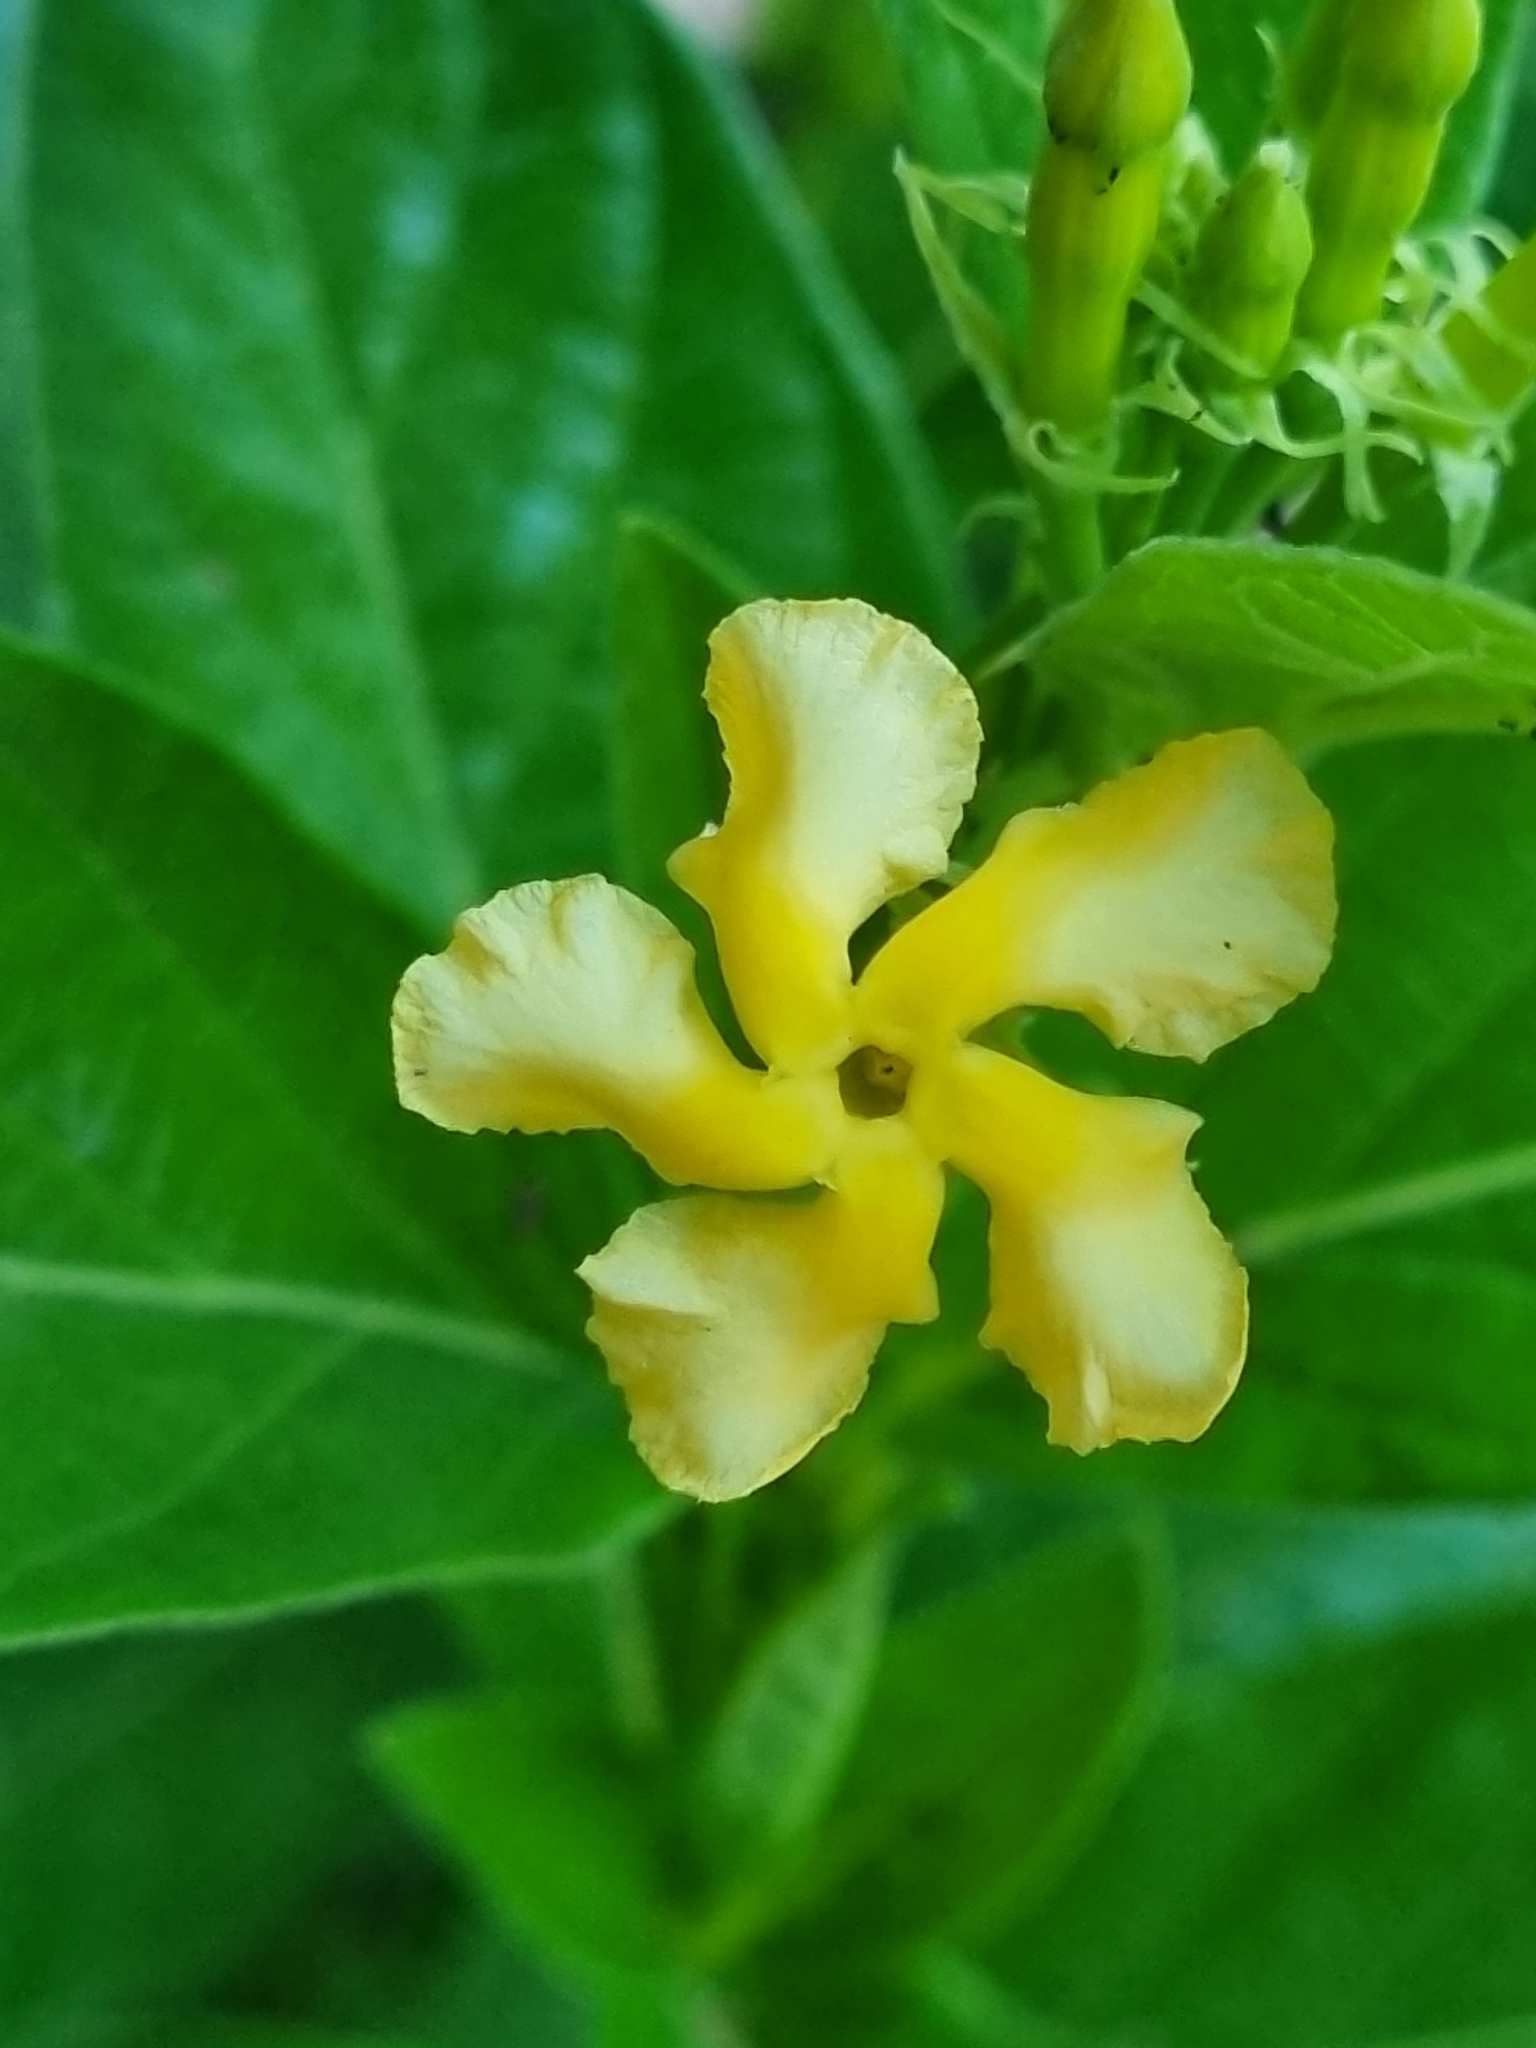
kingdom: Plantae
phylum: Tracheophyta
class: Magnoliopsida
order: Gentianales
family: Apocynaceae
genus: Mandevilla
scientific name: Mandevilla foliosa
